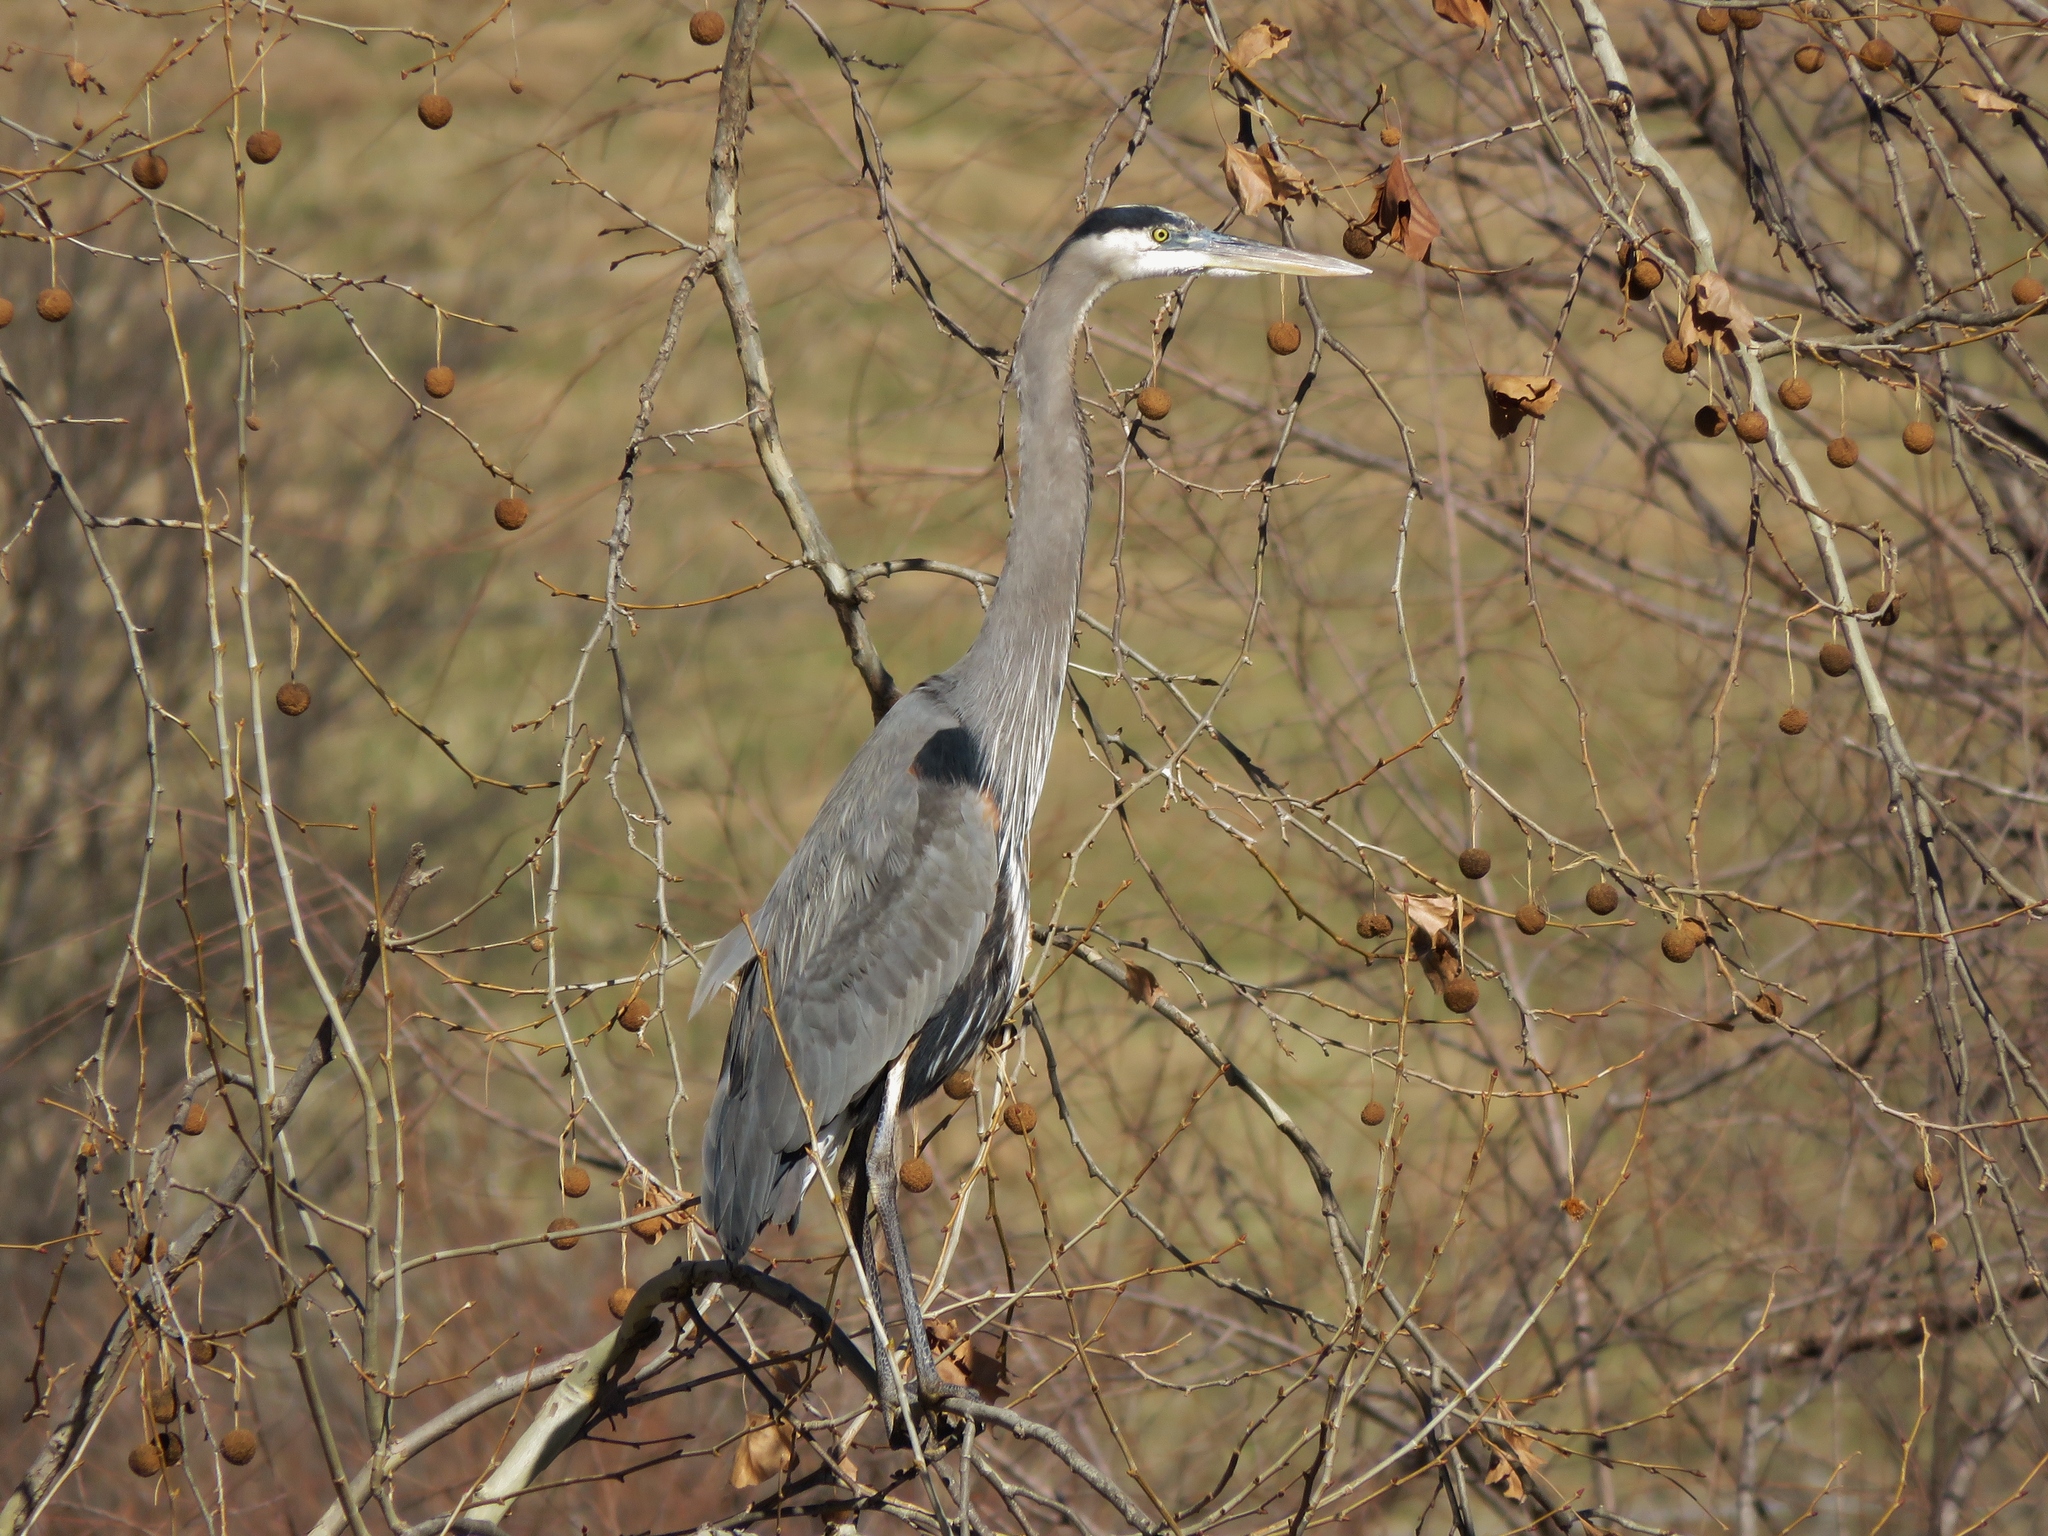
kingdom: Animalia
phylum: Chordata
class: Aves
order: Pelecaniformes
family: Ardeidae
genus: Ardea
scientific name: Ardea herodias
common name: Great blue heron
